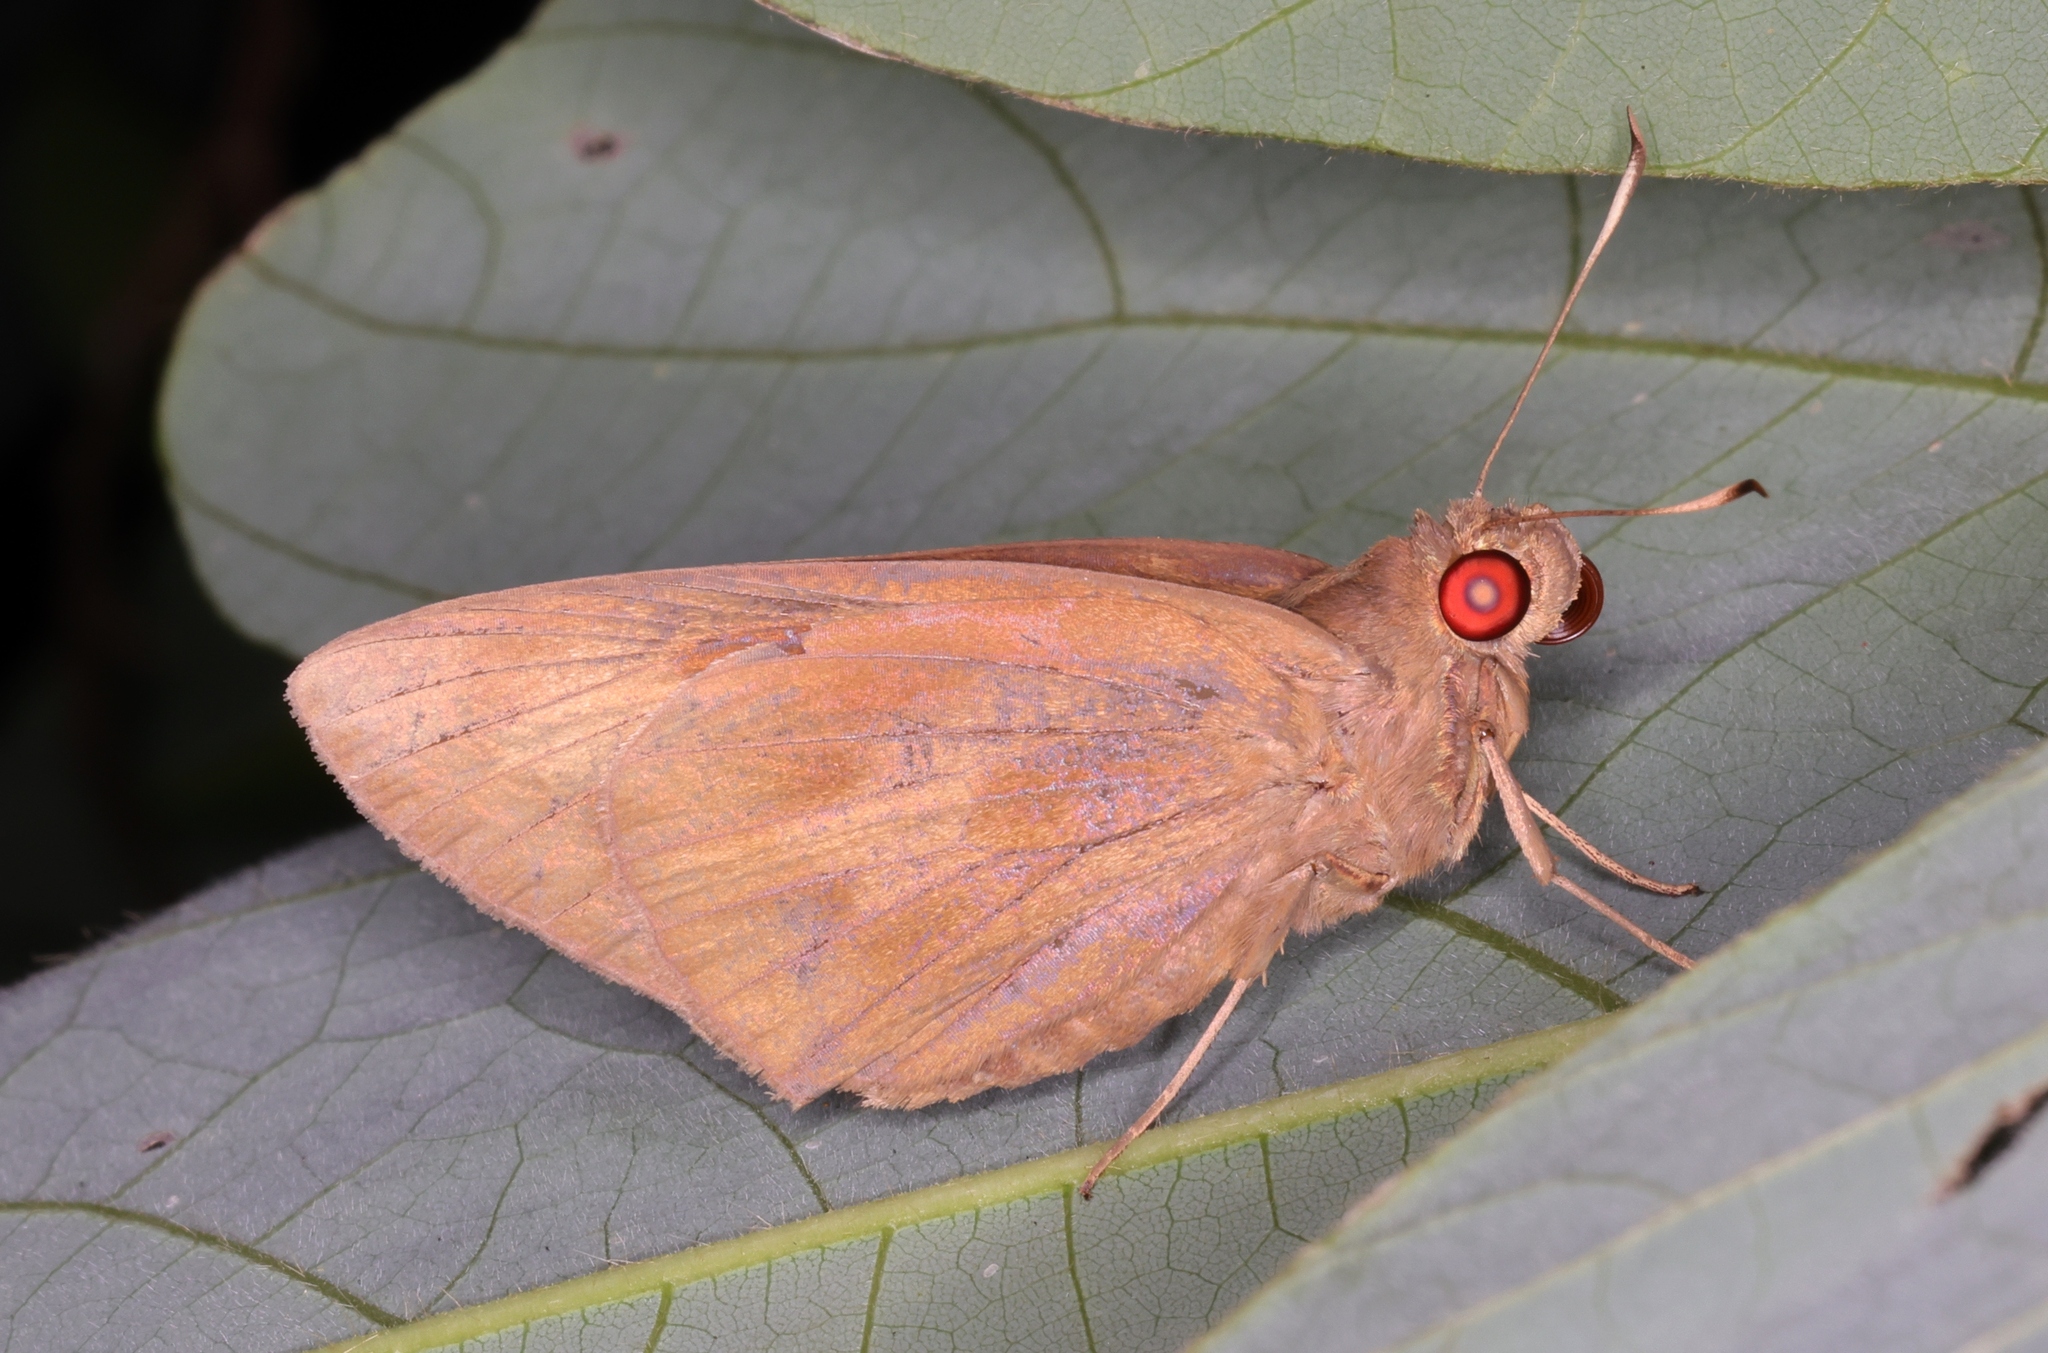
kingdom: Animalia
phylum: Arthropoda
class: Insecta
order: Lepidoptera
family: Hesperiidae
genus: Erionota
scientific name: Erionota torus
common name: Rounded palm-redeye
